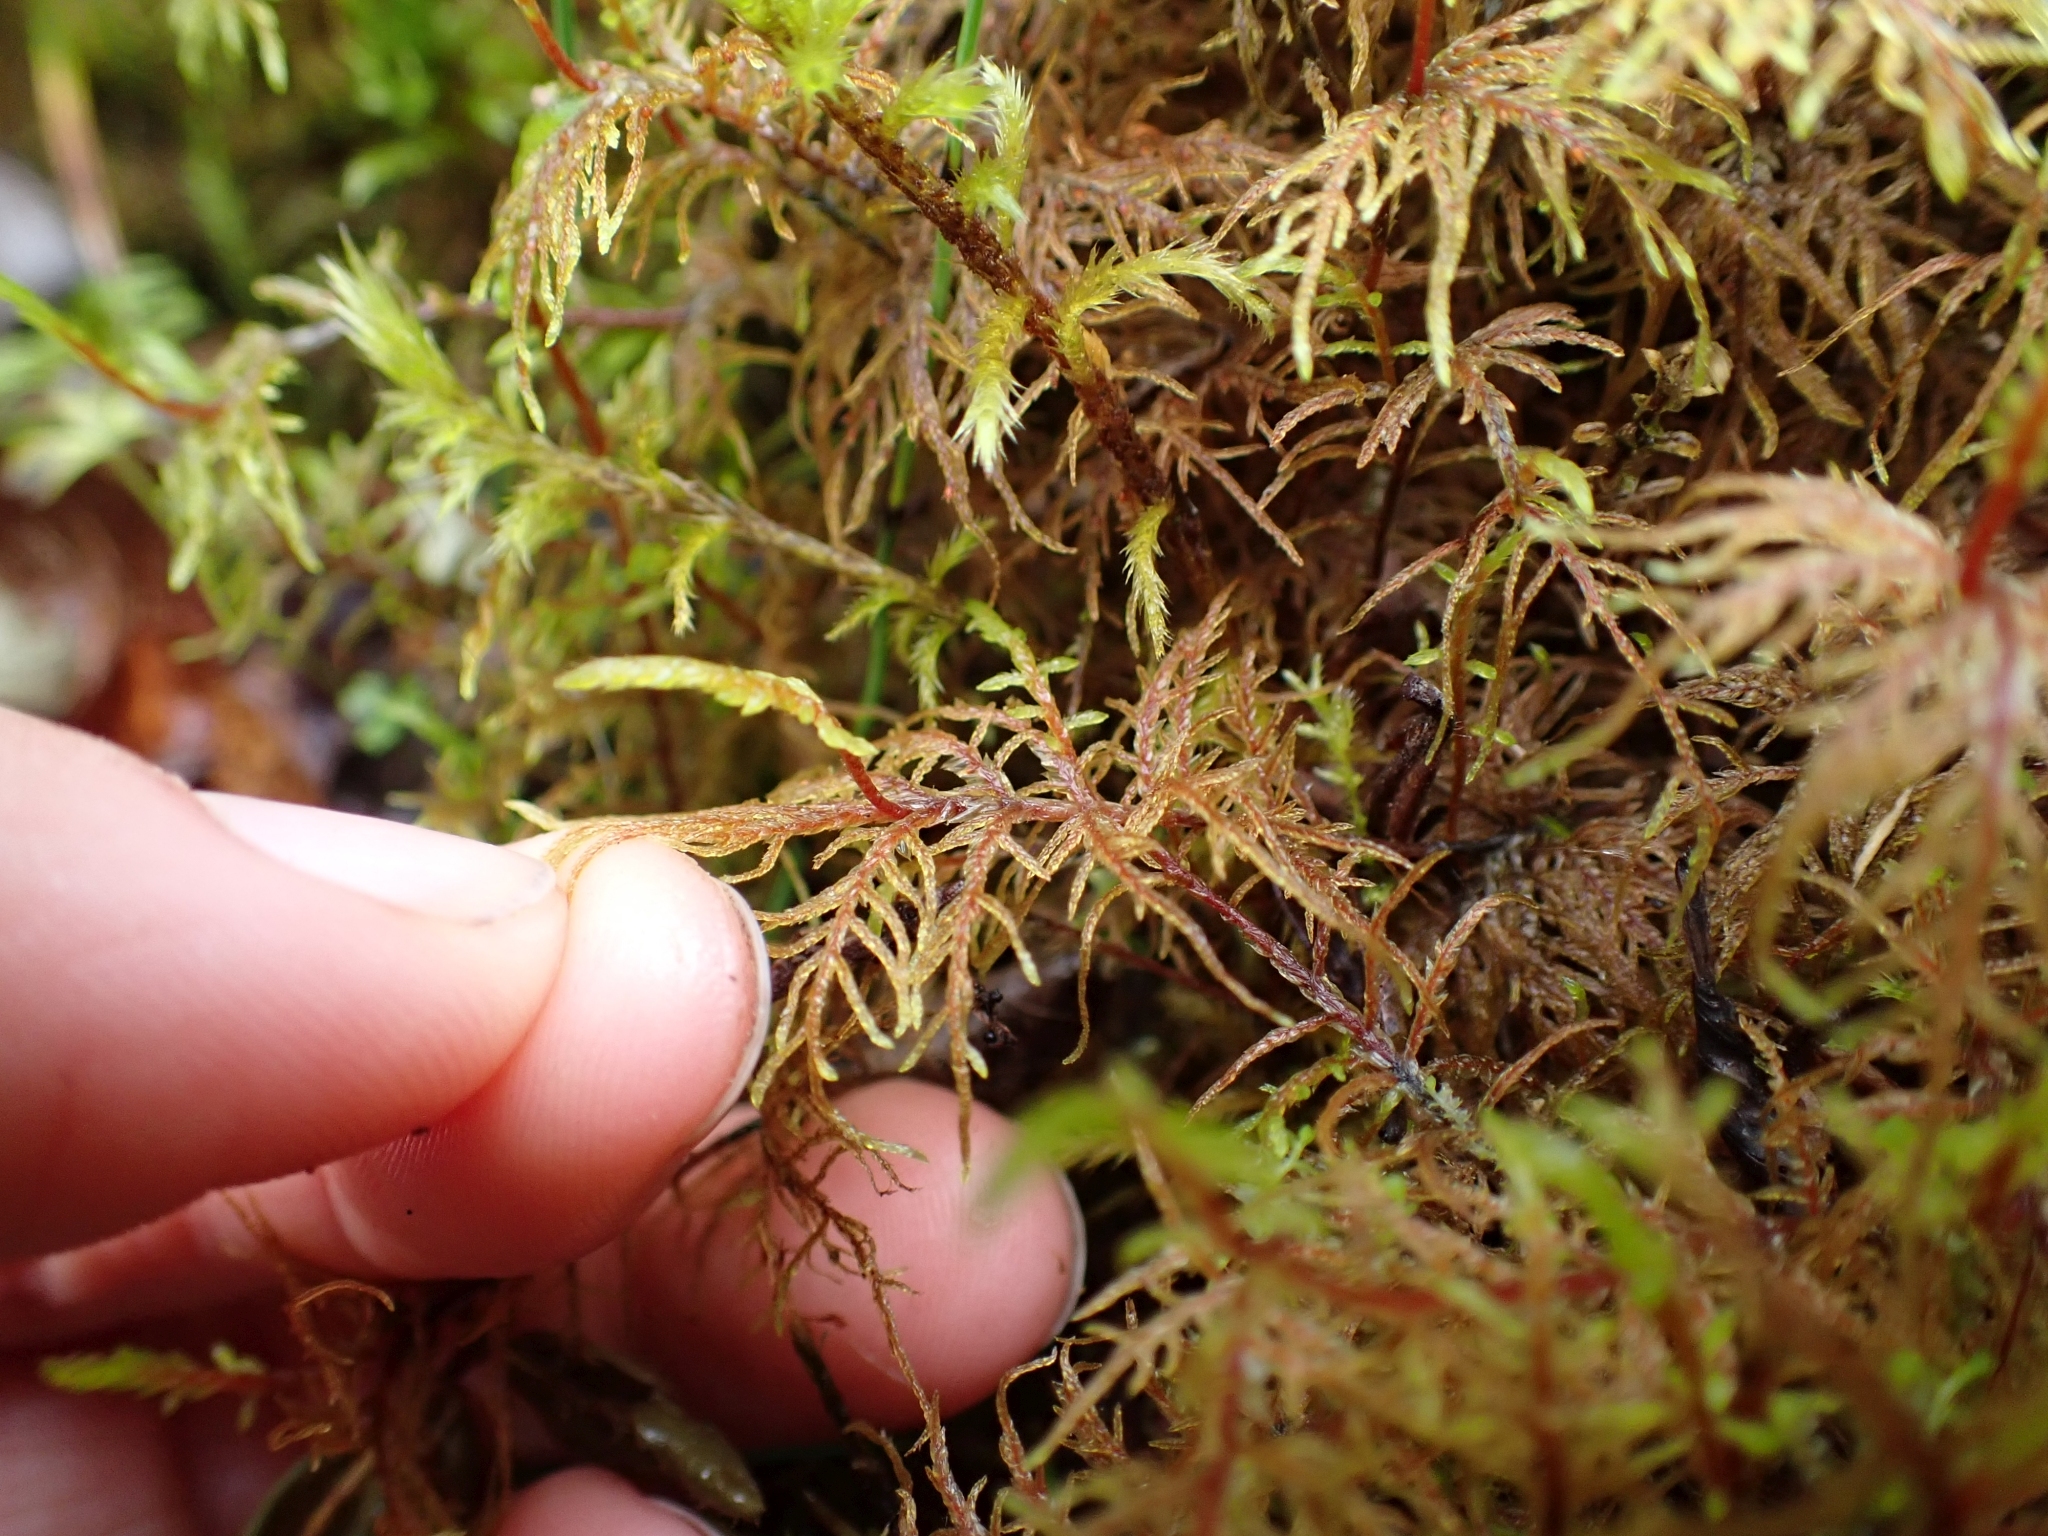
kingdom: Plantae
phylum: Bryophyta
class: Bryopsida
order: Hypnales
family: Hylocomiaceae
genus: Hylocomium
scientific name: Hylocomium splendens
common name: Stairstep moss
